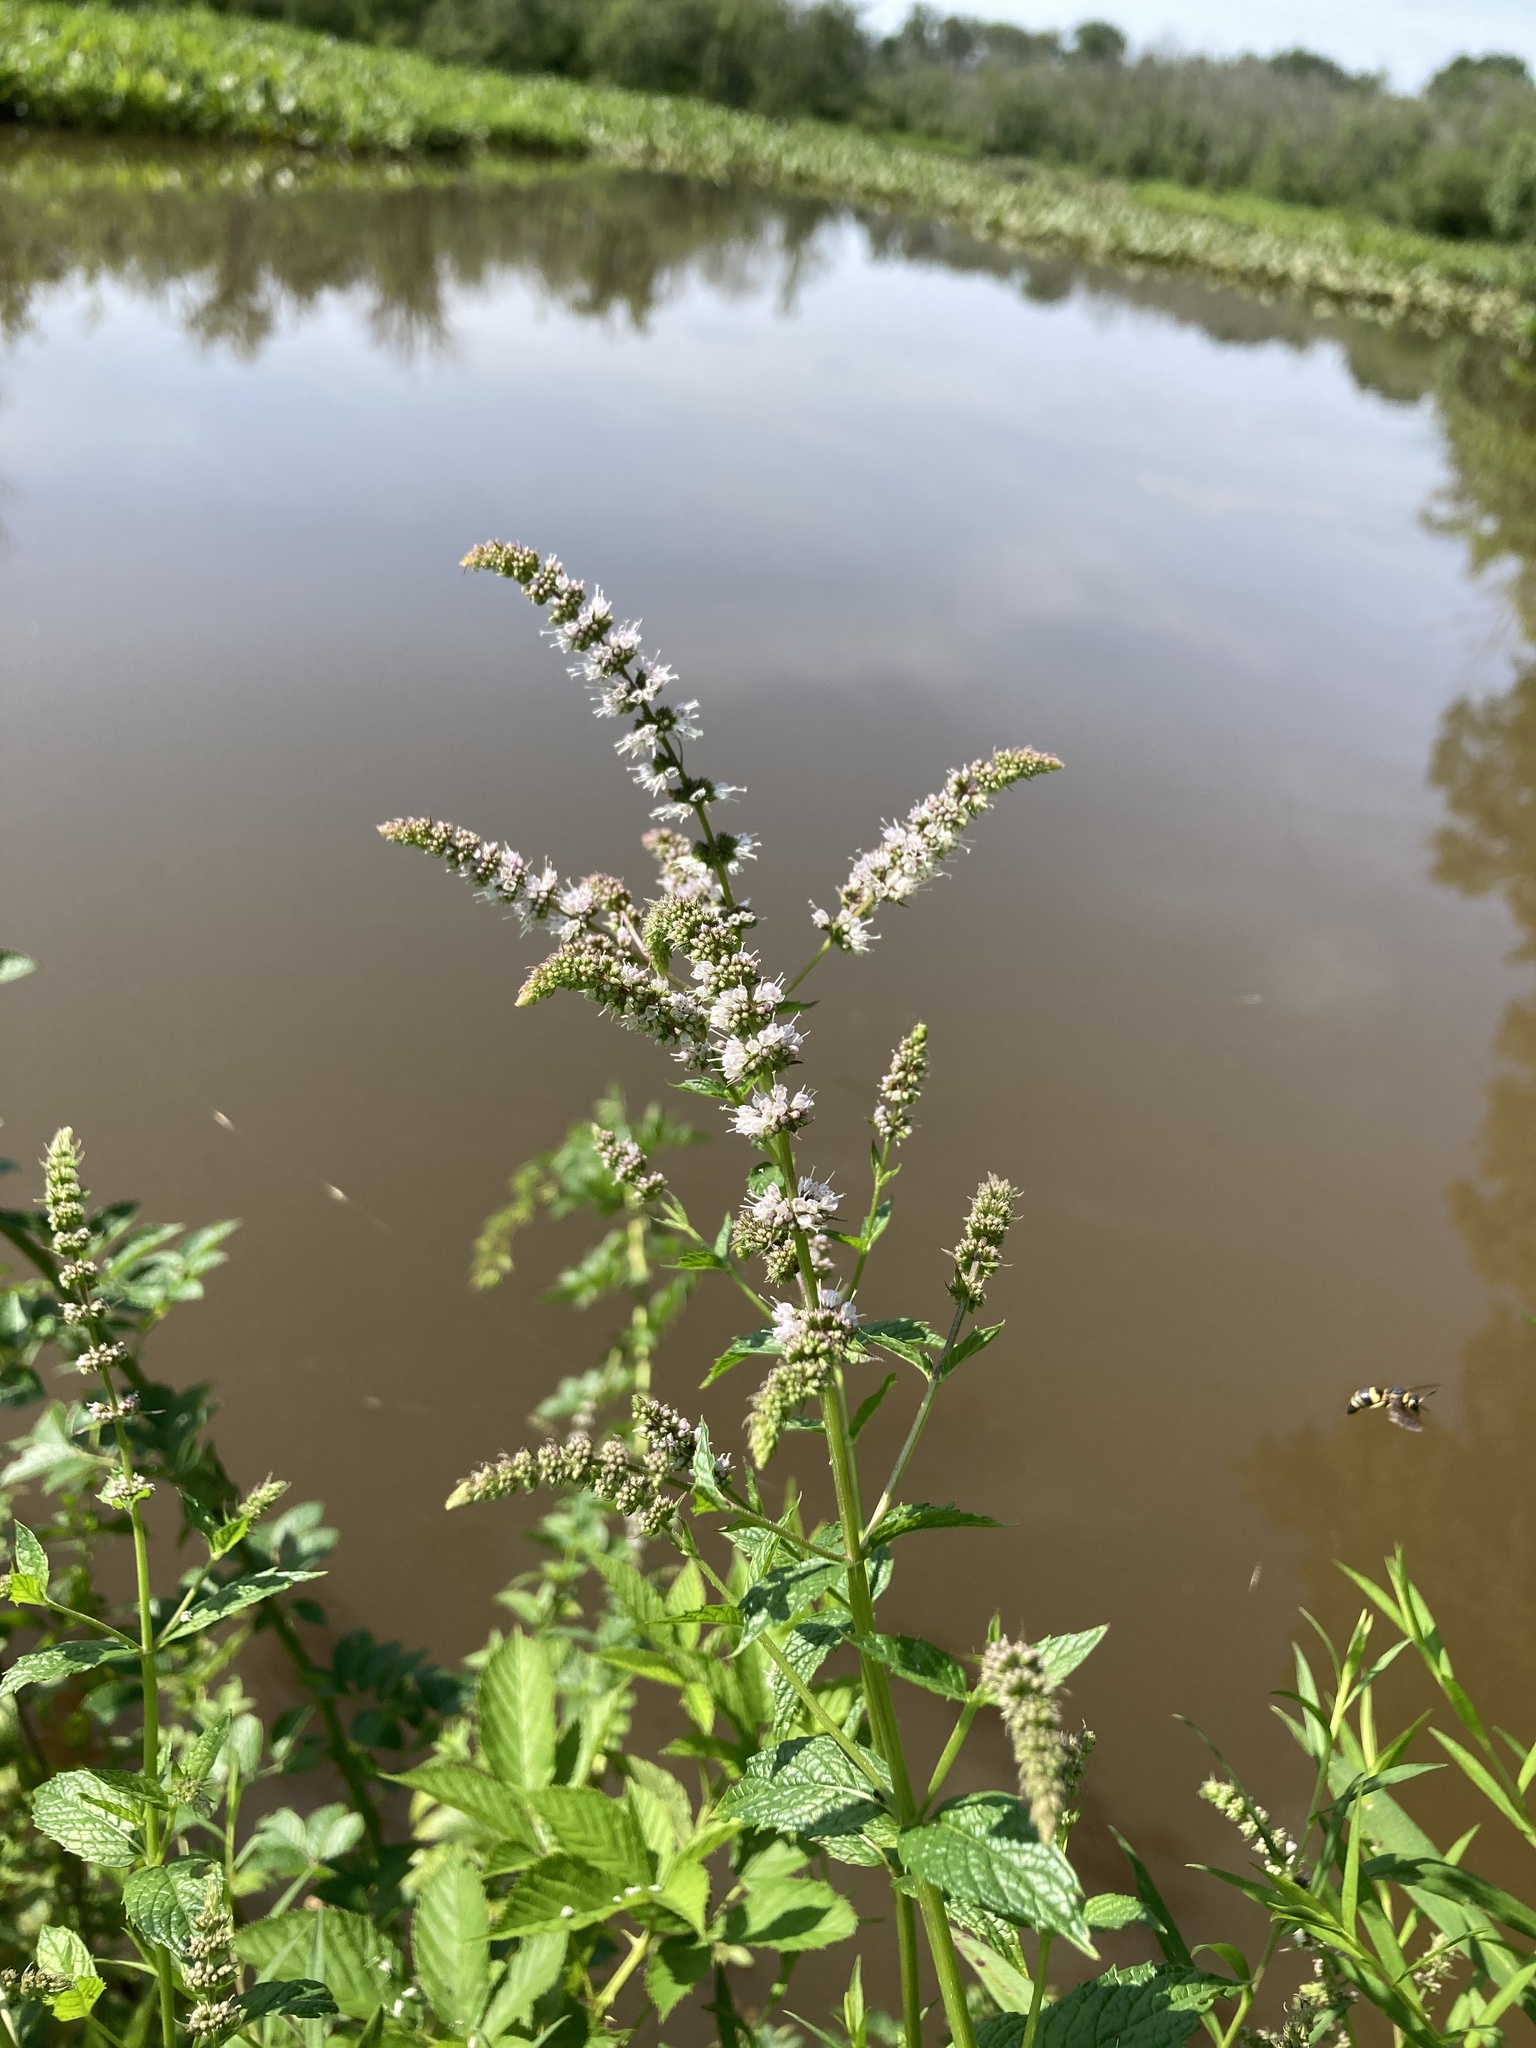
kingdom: Plantae
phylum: Tracheophyta
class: Magnoliopsida
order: Lamiales
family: Lamiaceae
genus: Mentha
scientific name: Mentha spicata
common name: Spearmint
